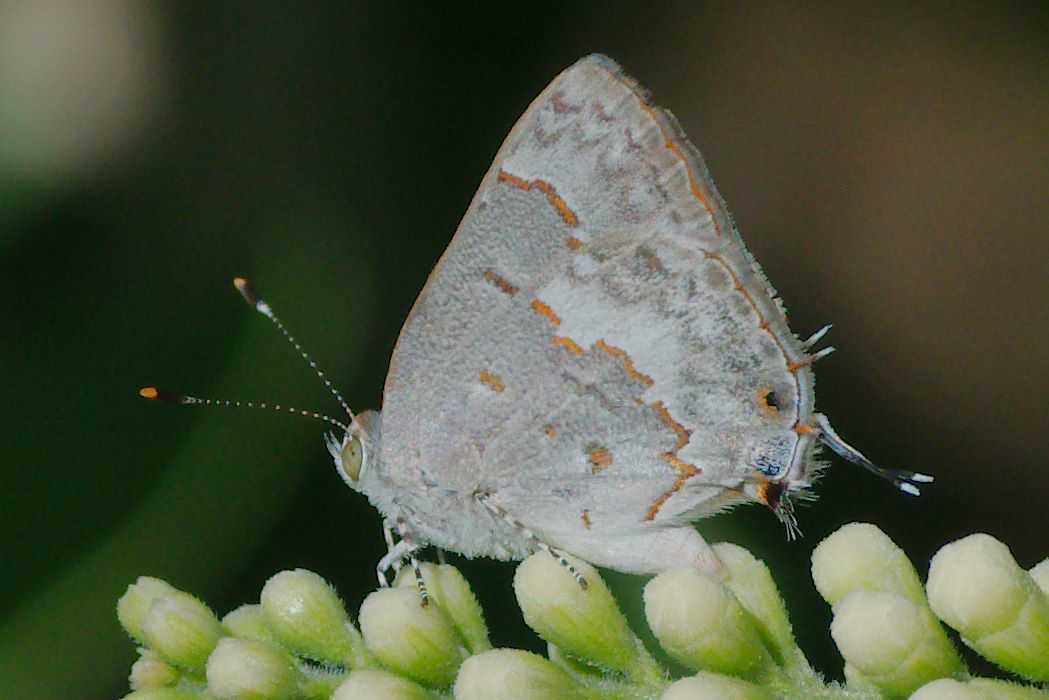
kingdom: Animalia
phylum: Arthropoda
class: Insecta
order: Lepidoptera
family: Lycaenidae
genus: Ministrymon
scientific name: Ministrymon clytie
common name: Clytie ministreak
